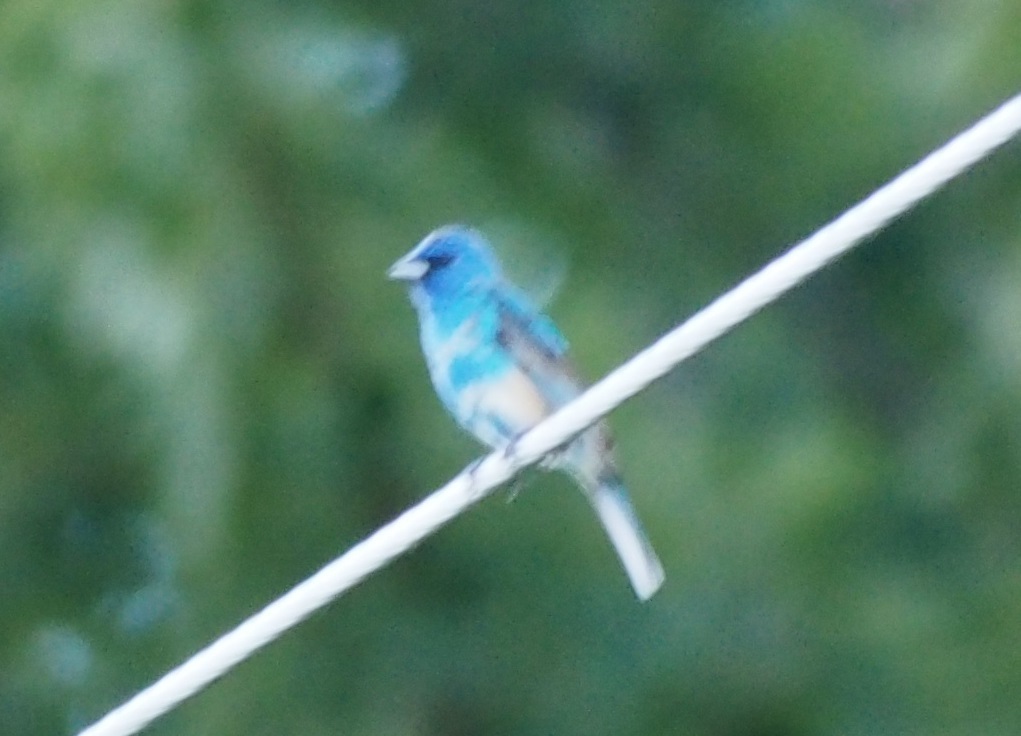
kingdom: Animalia
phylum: Chordata
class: Aves
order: Passeriformes
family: Cardinalidae
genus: Passerina
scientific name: Passerina cyanea
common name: Indigo bunting
